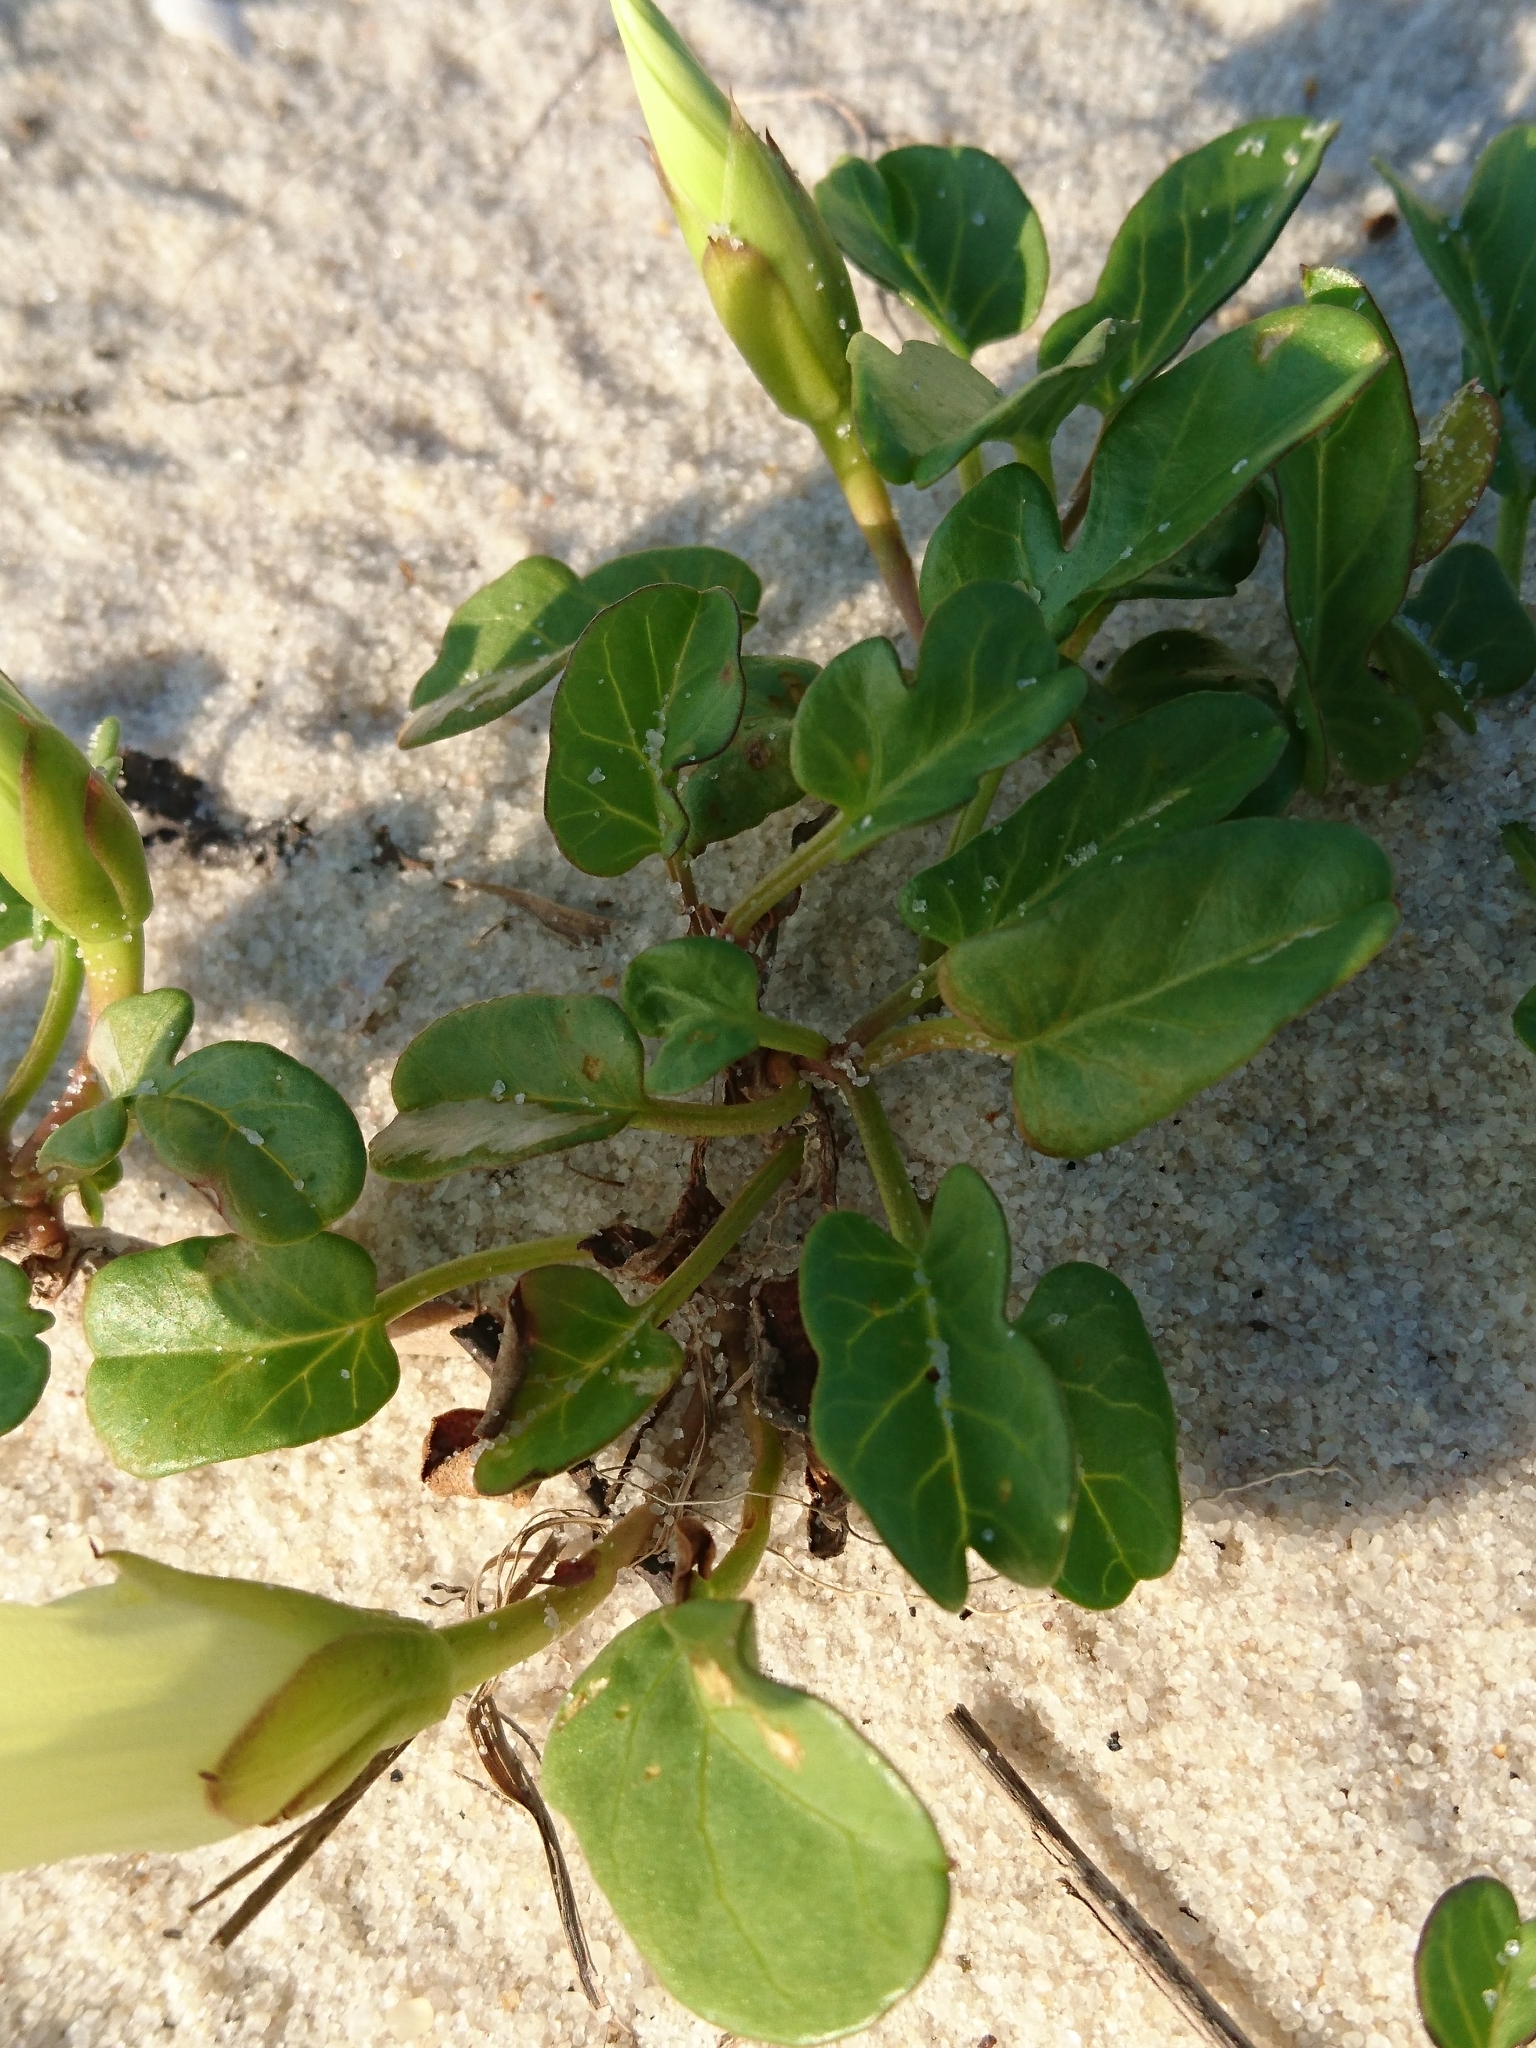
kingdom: Plantae
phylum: Tracheophyta
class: Magnoliopsida
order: Solanales
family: Convolvulaceae
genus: Ipomoea
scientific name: Ipomoea imperati
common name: Fiddle-leaf morning-glory
